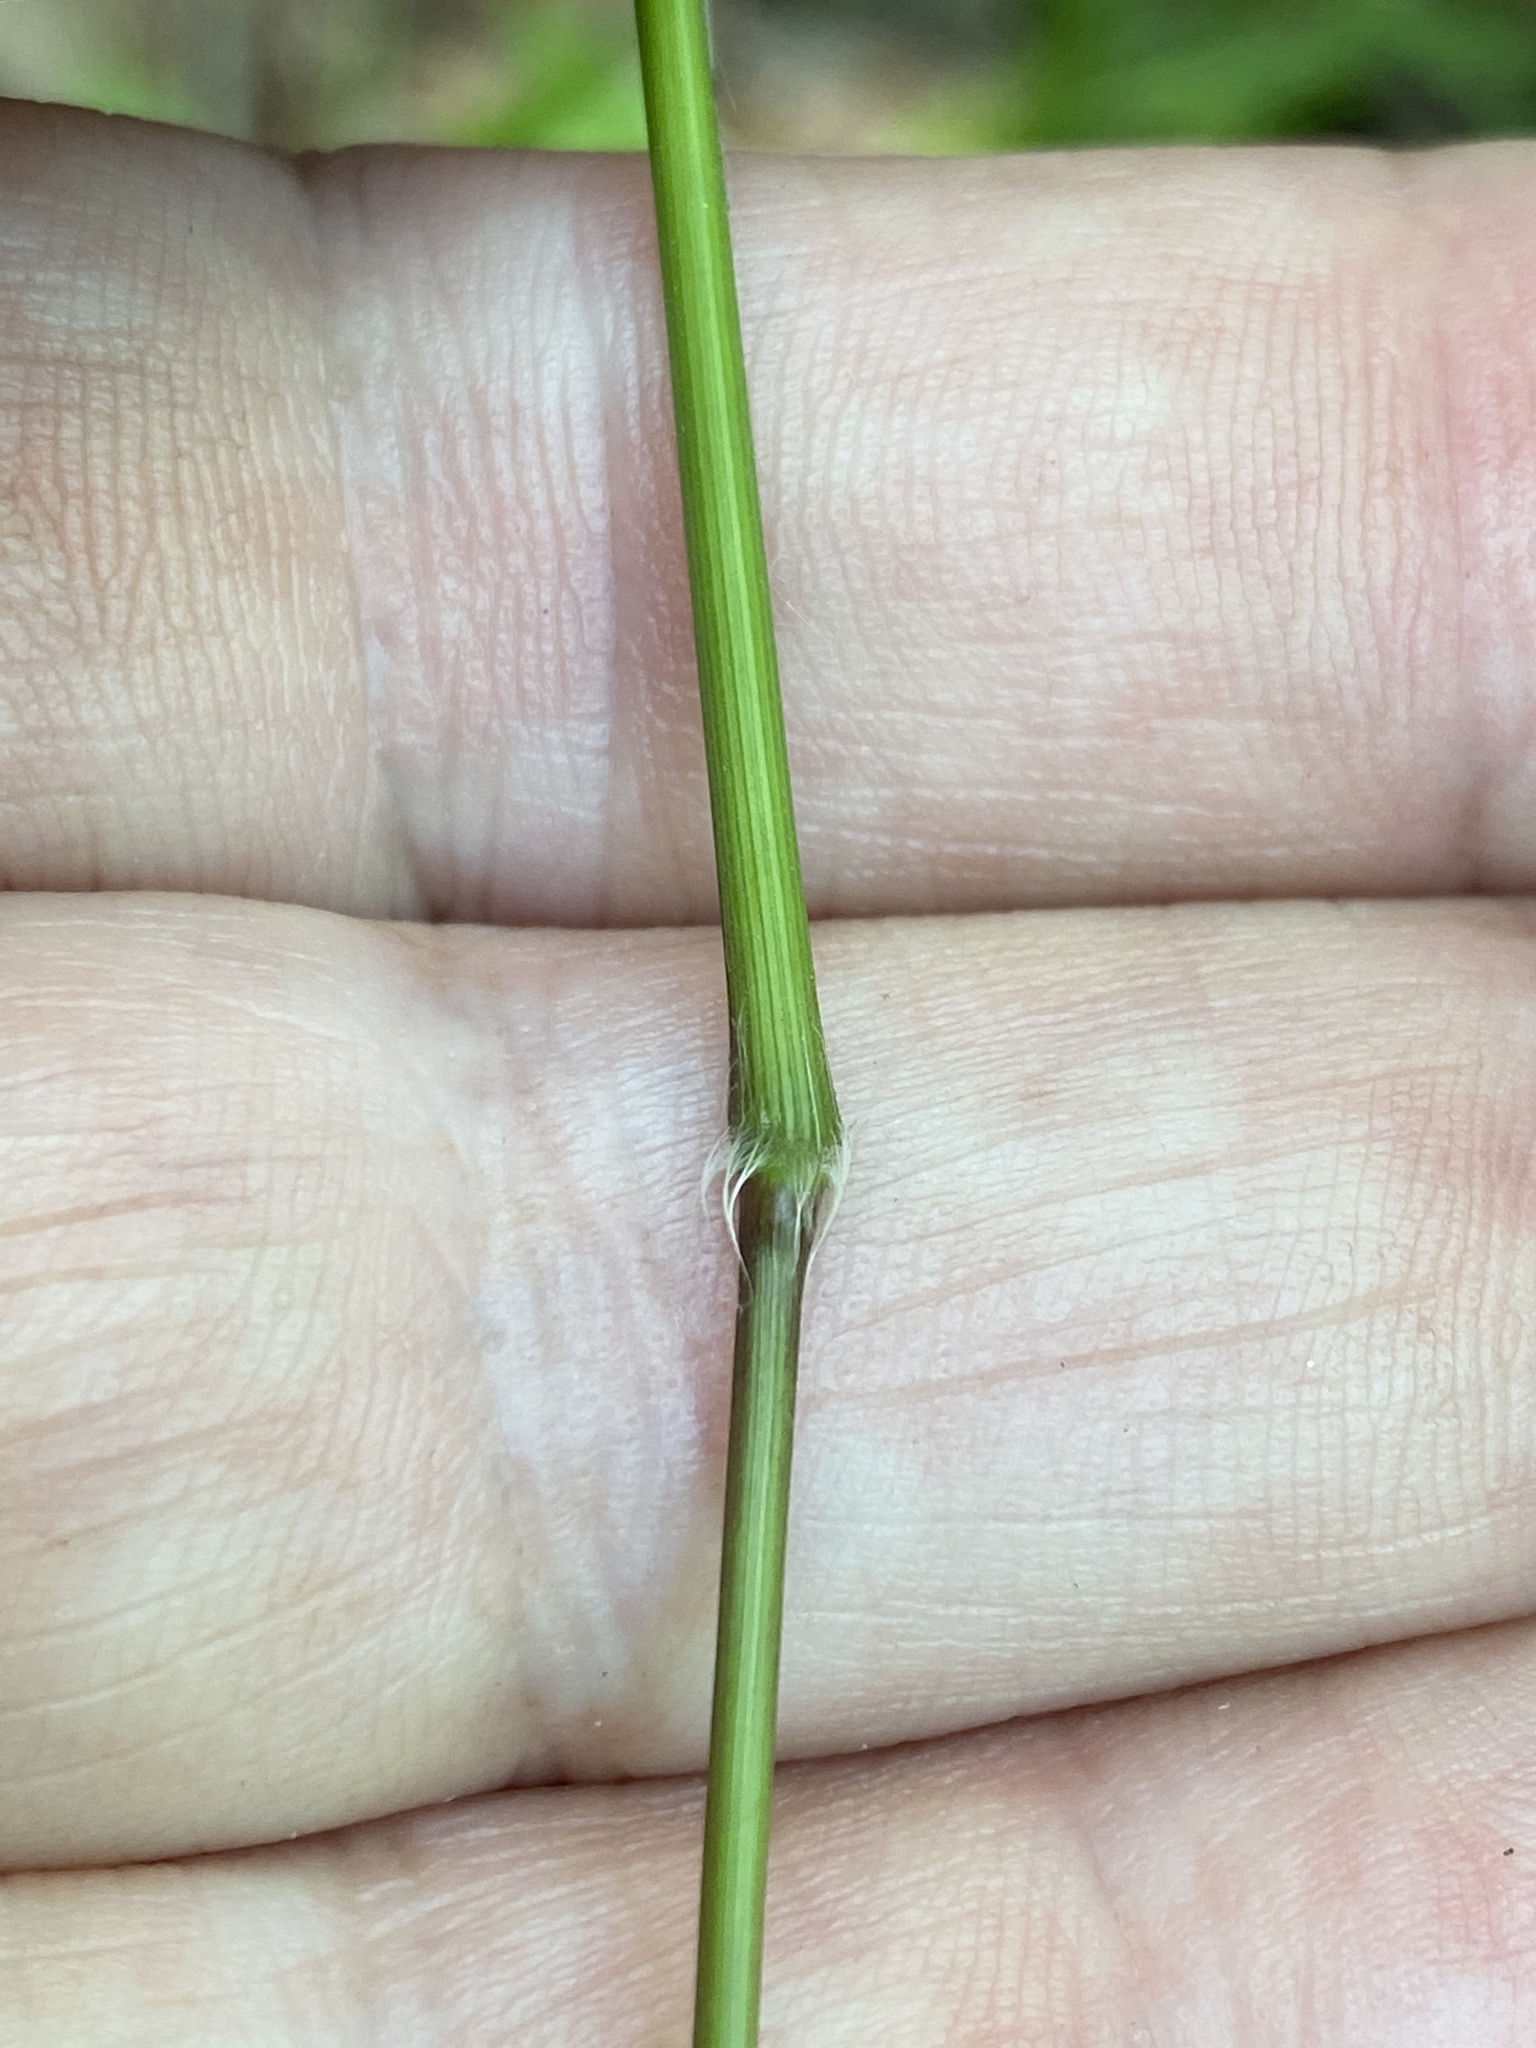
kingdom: Plantae
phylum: Tracheophyta
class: Liliopsida
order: Poales
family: Poaceae
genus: Dichanthelium
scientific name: Dichanthelium boscii
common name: Bosc's panic grass
